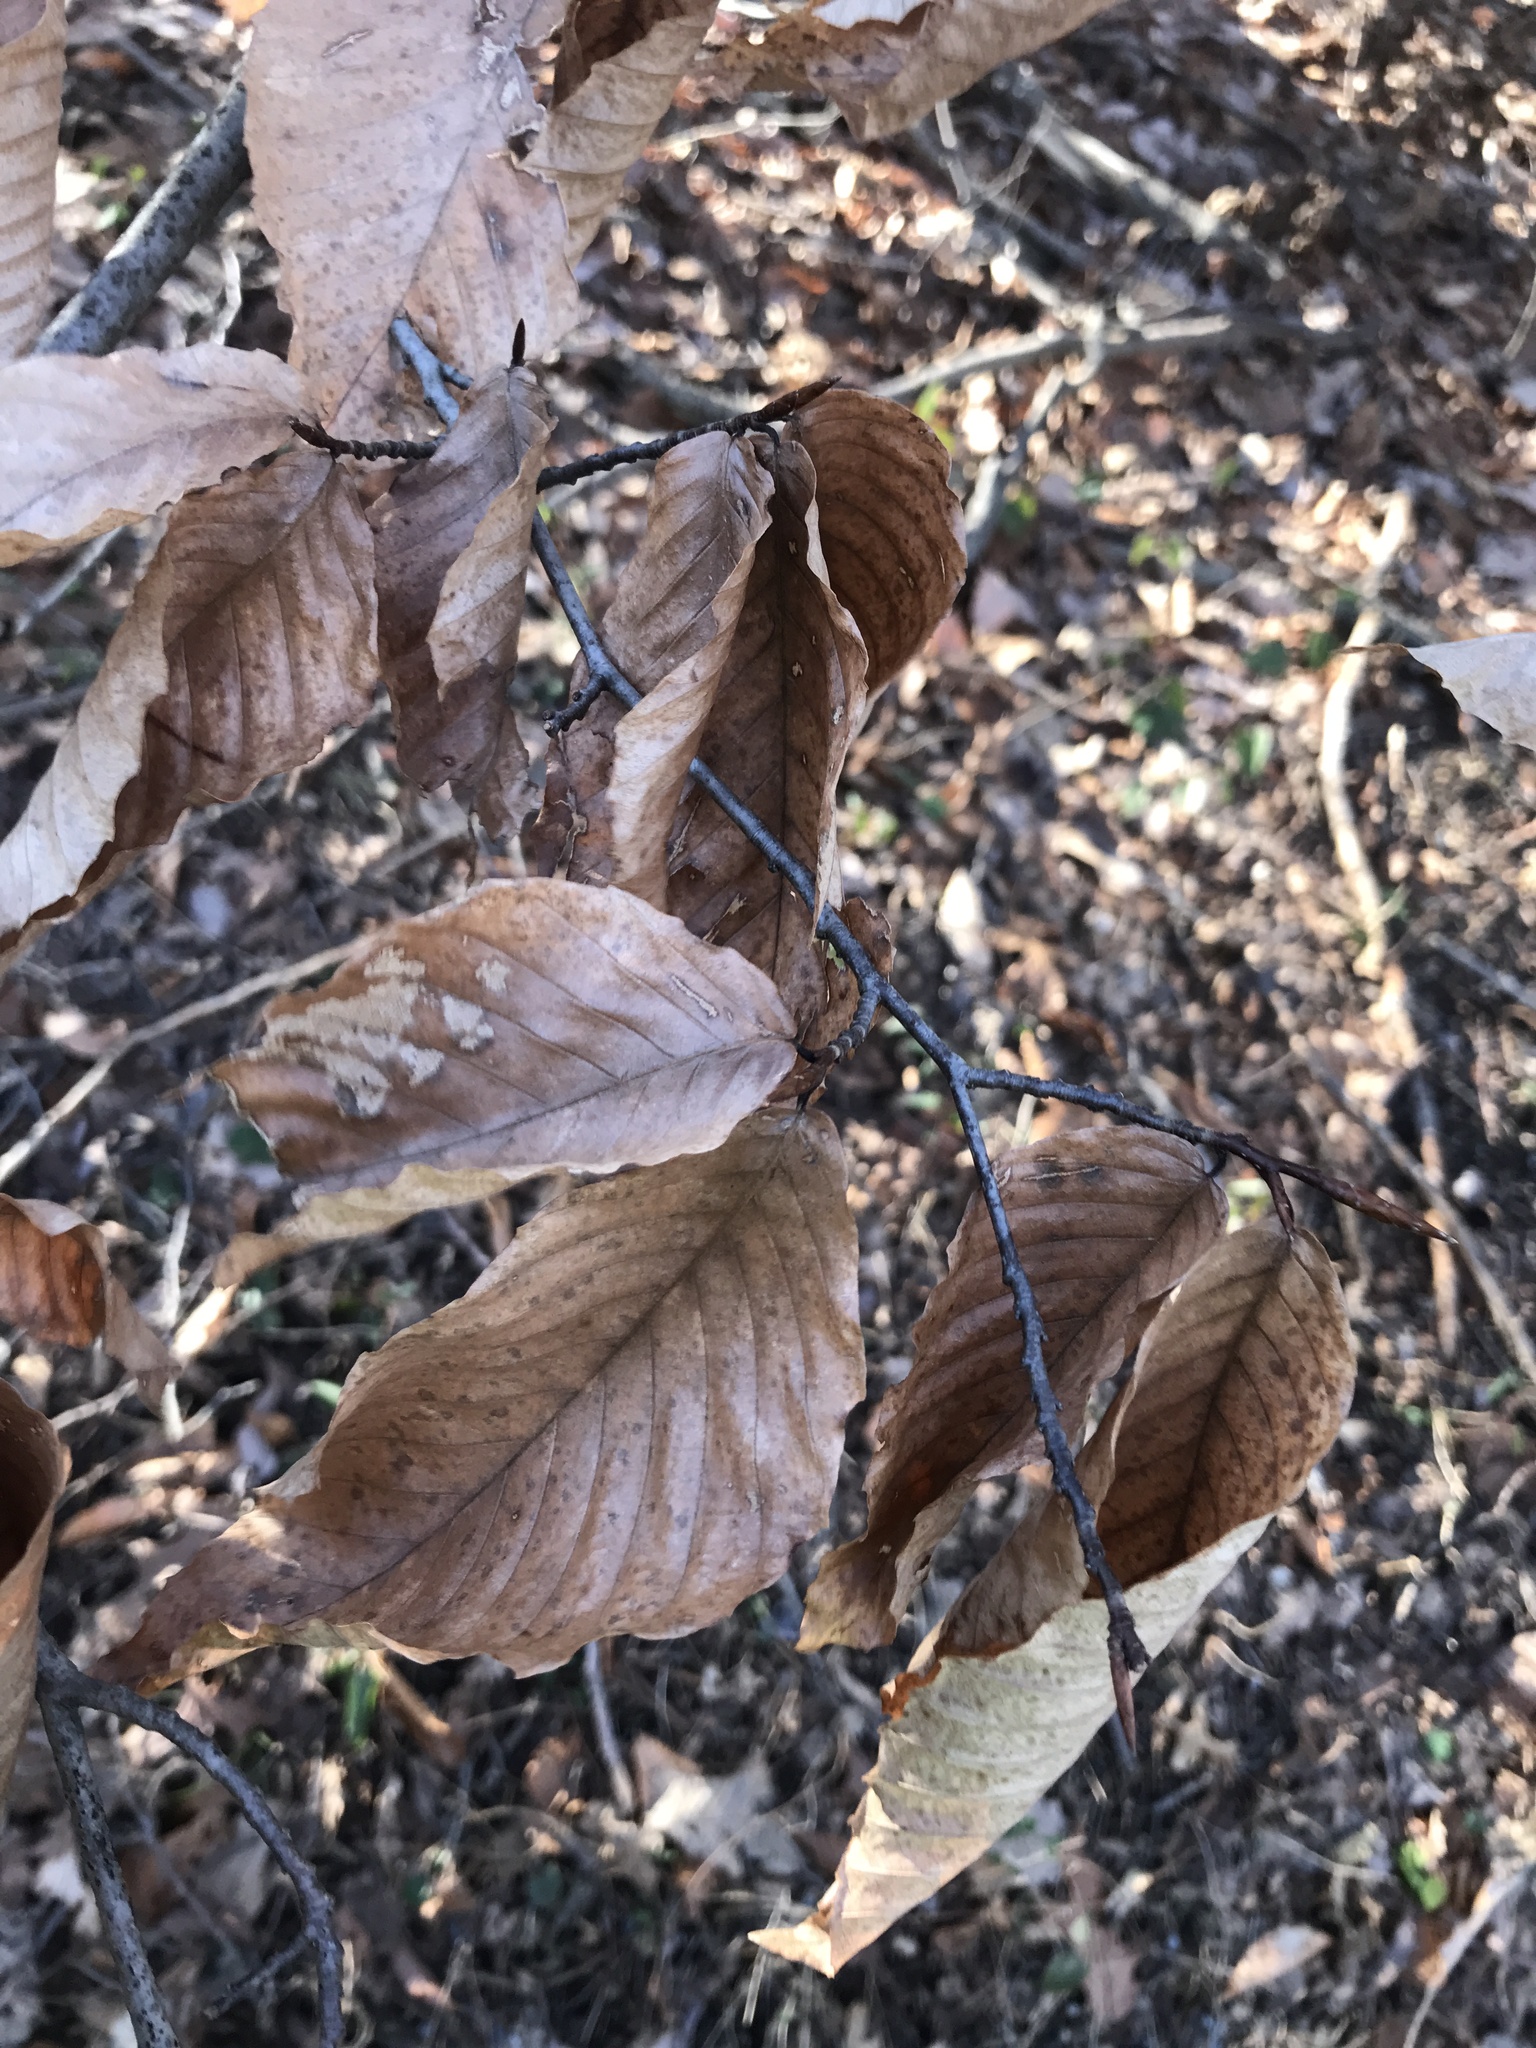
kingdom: Plantae
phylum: Tracheophyta
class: Magnoliopsida
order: Fagales
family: Fagaceae
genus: Fagus
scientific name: Fagus grandifolia
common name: American beech
